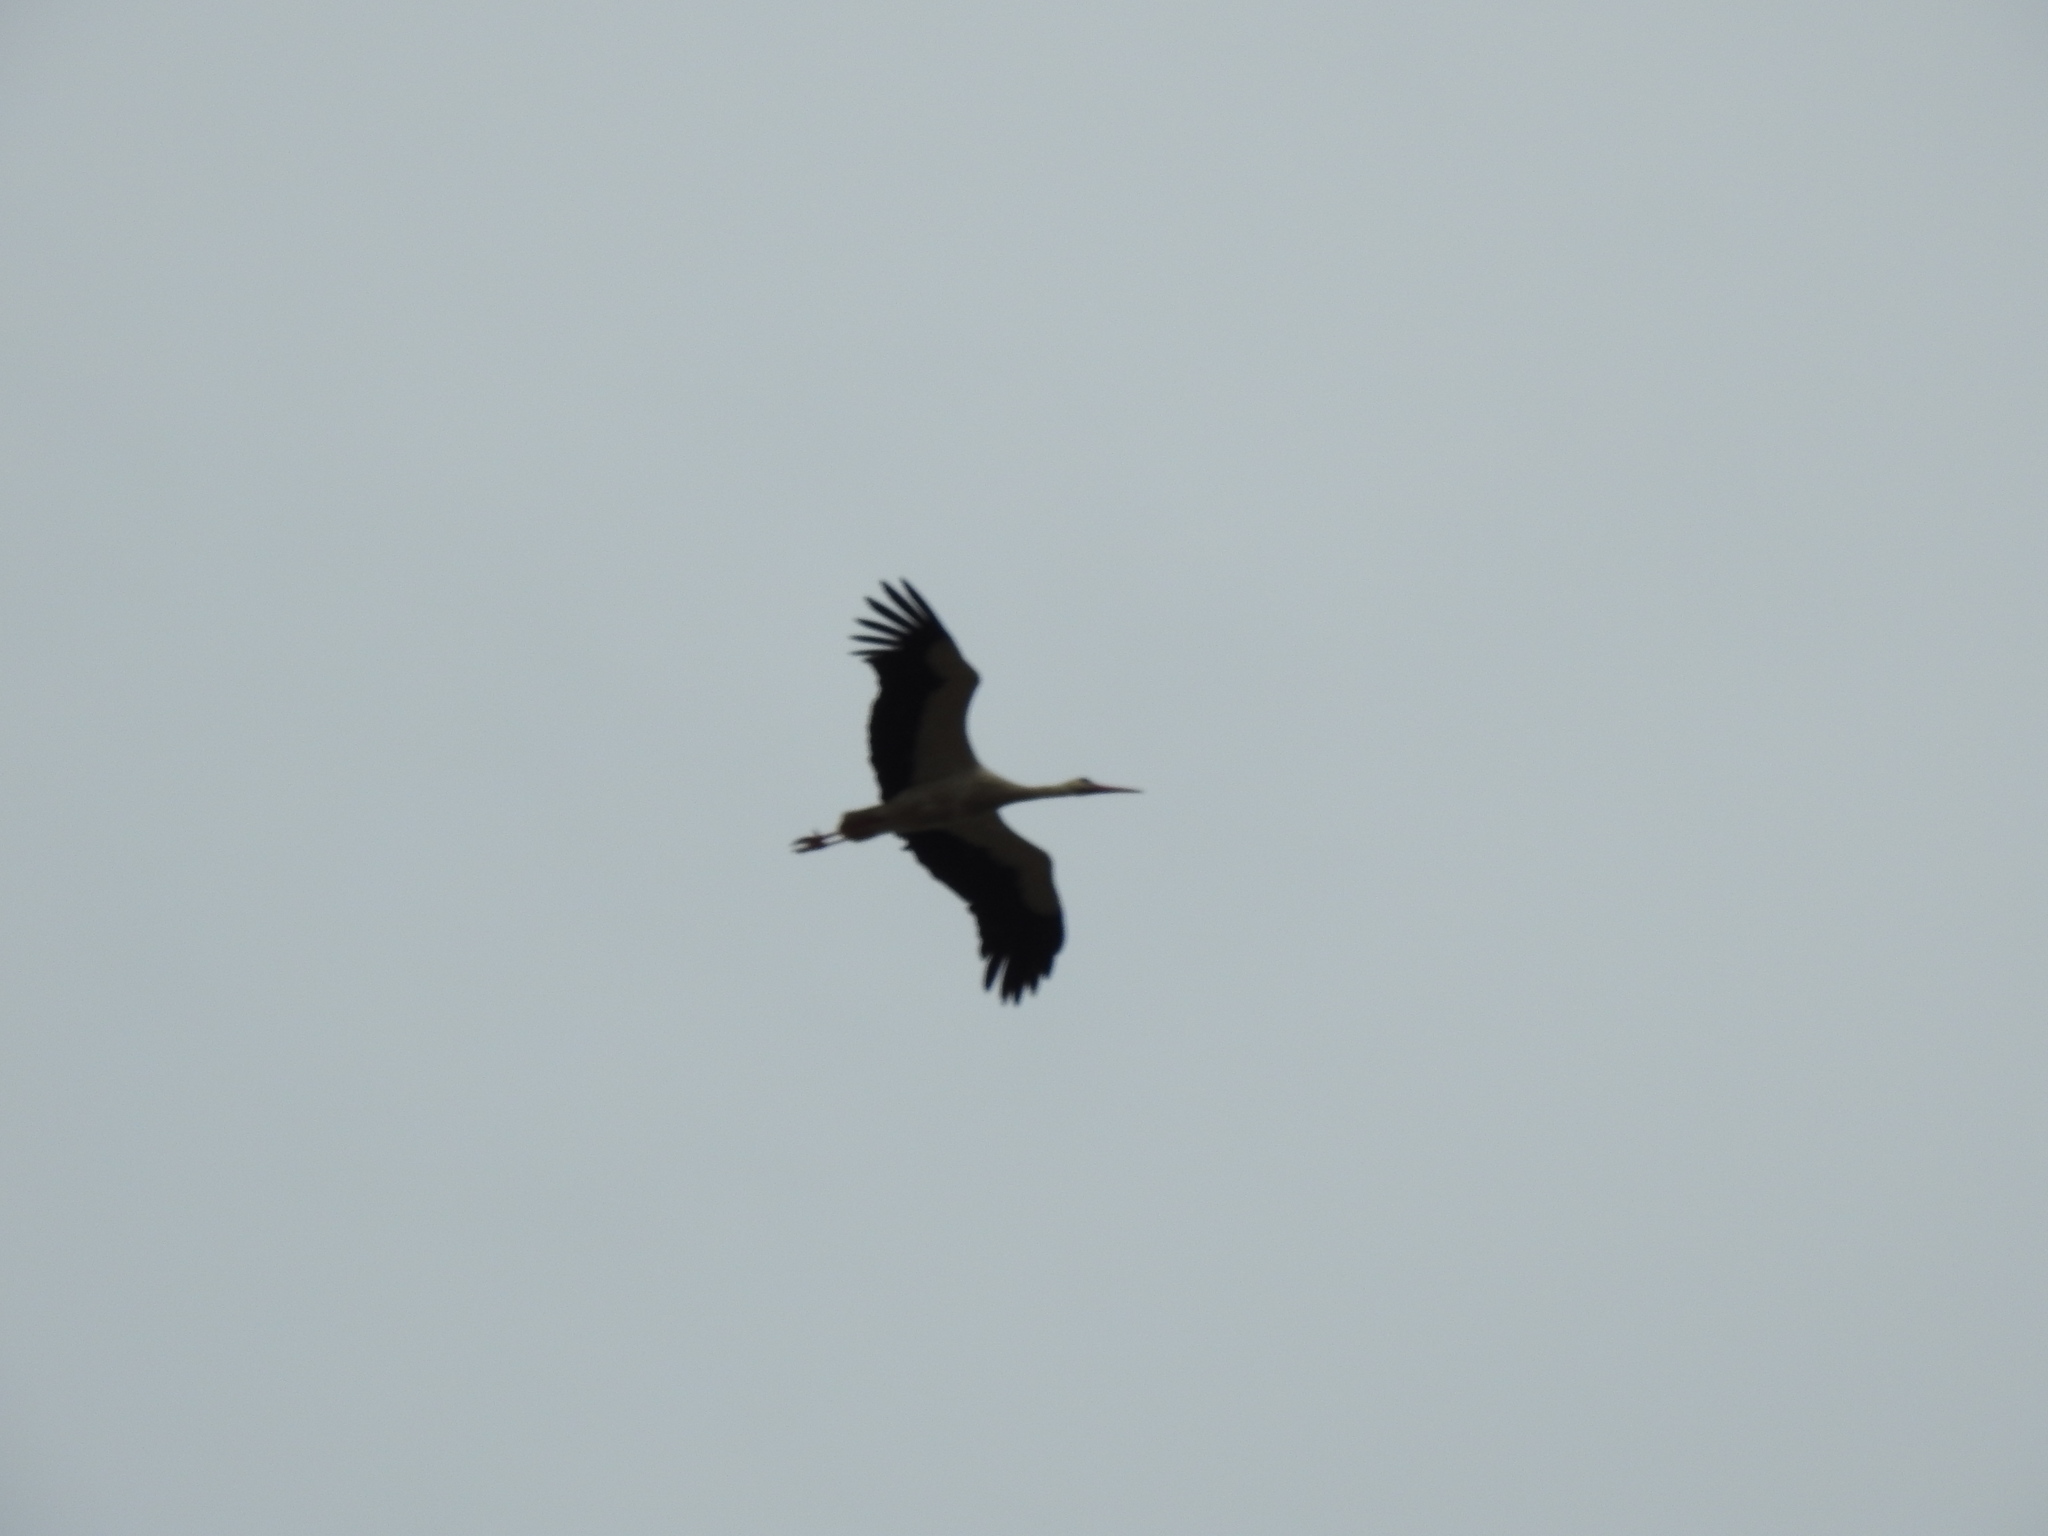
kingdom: Animalia
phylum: Chordata
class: Aves
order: Ciconiiformes
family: Ciconiidae
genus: Ciconia
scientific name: Ciconia ciconia
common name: White stork
